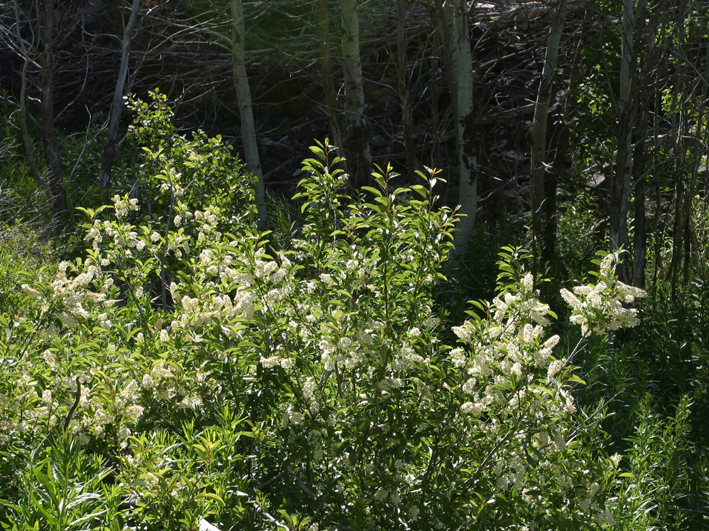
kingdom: Plantae
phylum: Tracheophyta
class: Magnoliopsida
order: Rosales
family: Rosaceae
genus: Prunus
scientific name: Prunus virginiana
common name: Chokecherry
